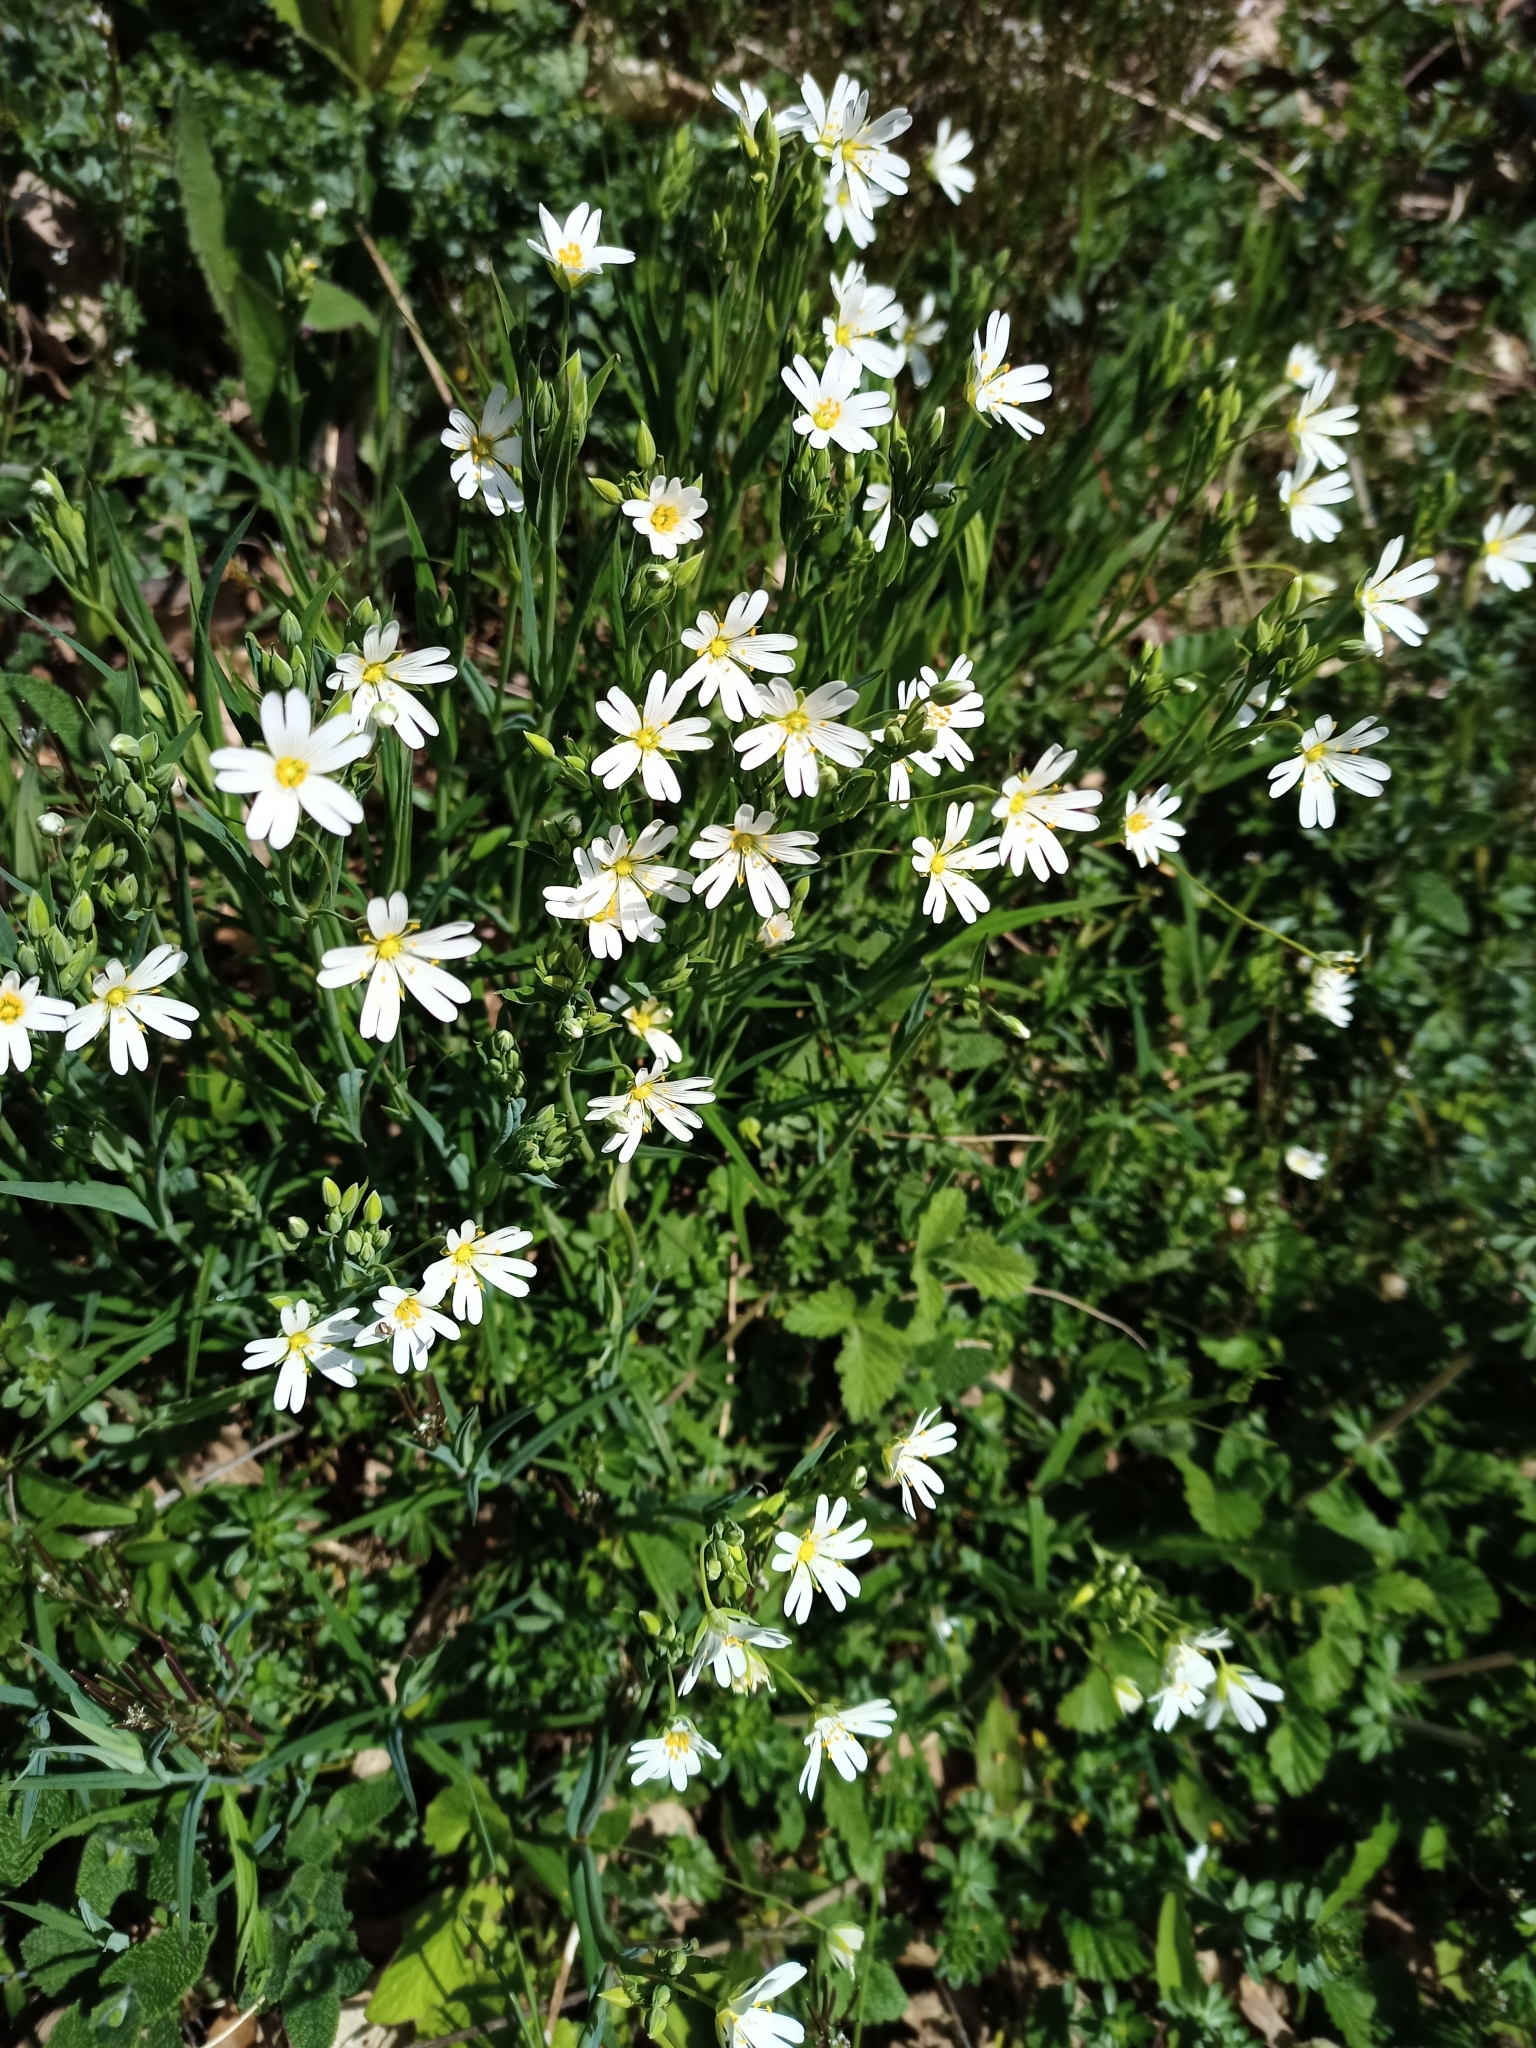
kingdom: Plantae
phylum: Tracheophyta
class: Magnoliopsida
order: Caryophyllales
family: Caryophyllaceae
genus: Rabelera
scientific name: Rabelera holostea
